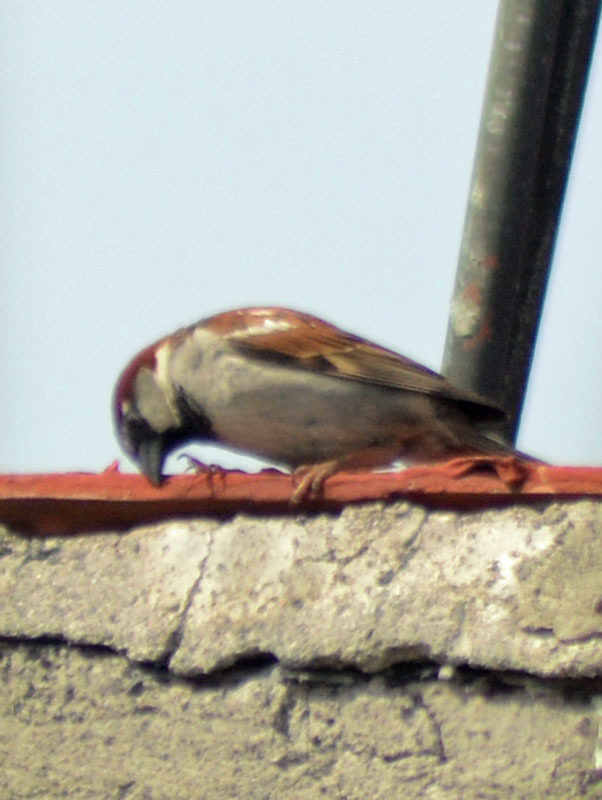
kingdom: Animalia
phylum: Chordata
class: Aves
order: Passeriformes
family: Passeridae
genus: Passer
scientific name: Passer domesticus
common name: House sparrow
